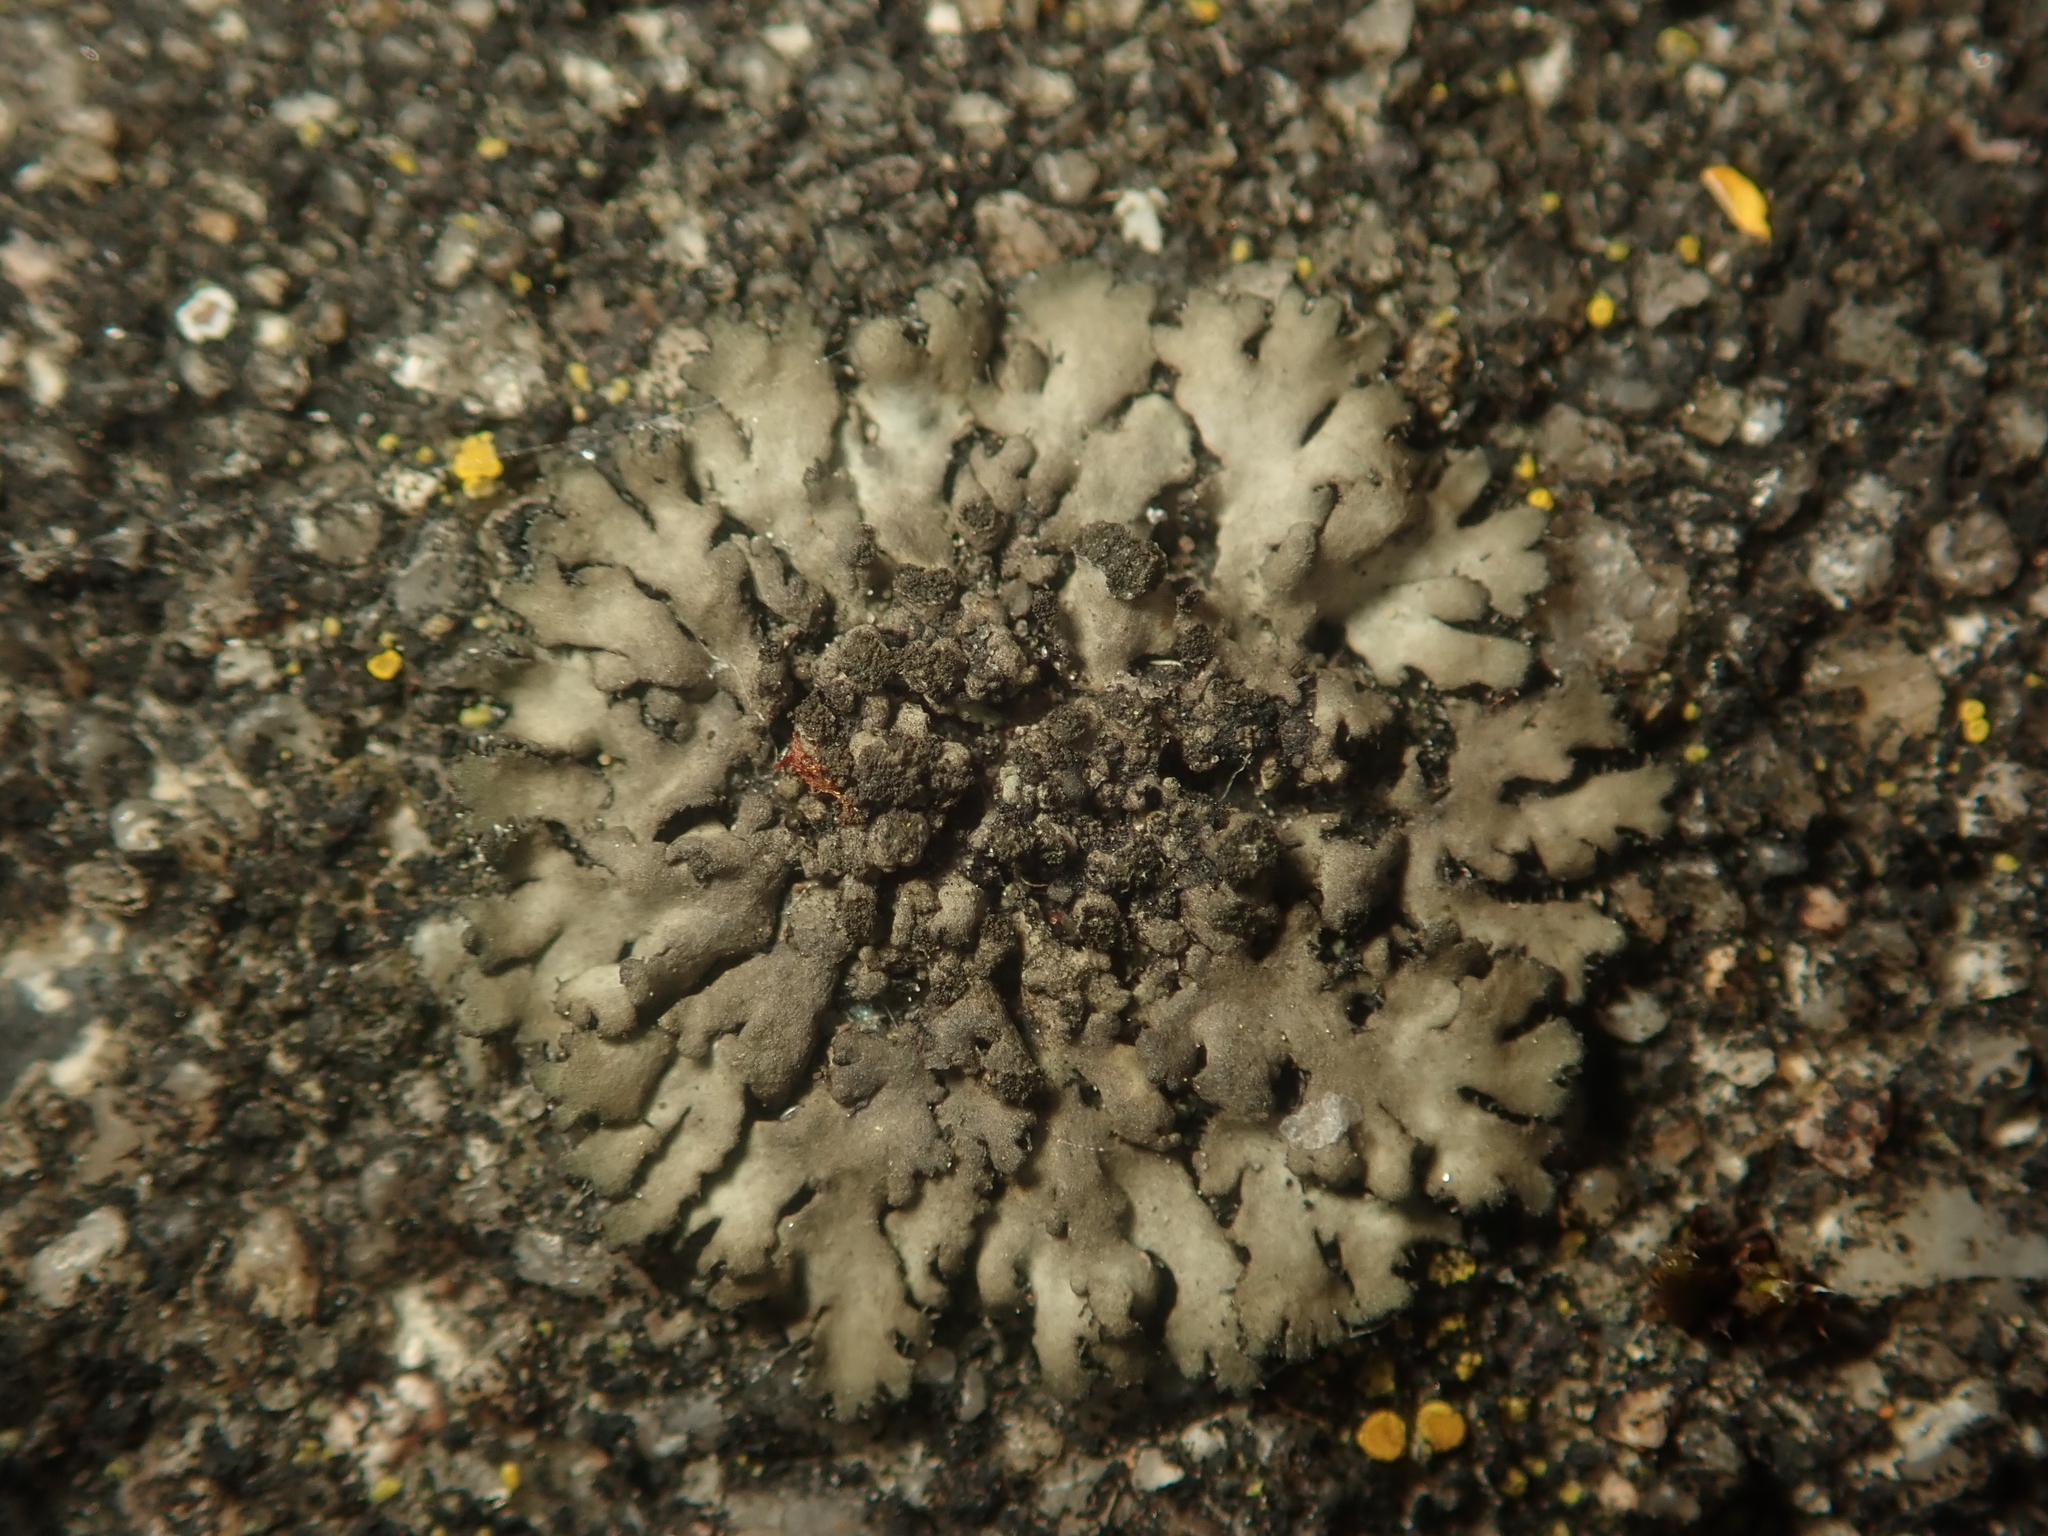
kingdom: Fungi
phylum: Ascomycota
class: Lecanoromycetes
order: Caliciales
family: Physciaceae
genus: Phaeophyscia
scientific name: Phaeophyscia orbicularis
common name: Mealy shadow lichen
